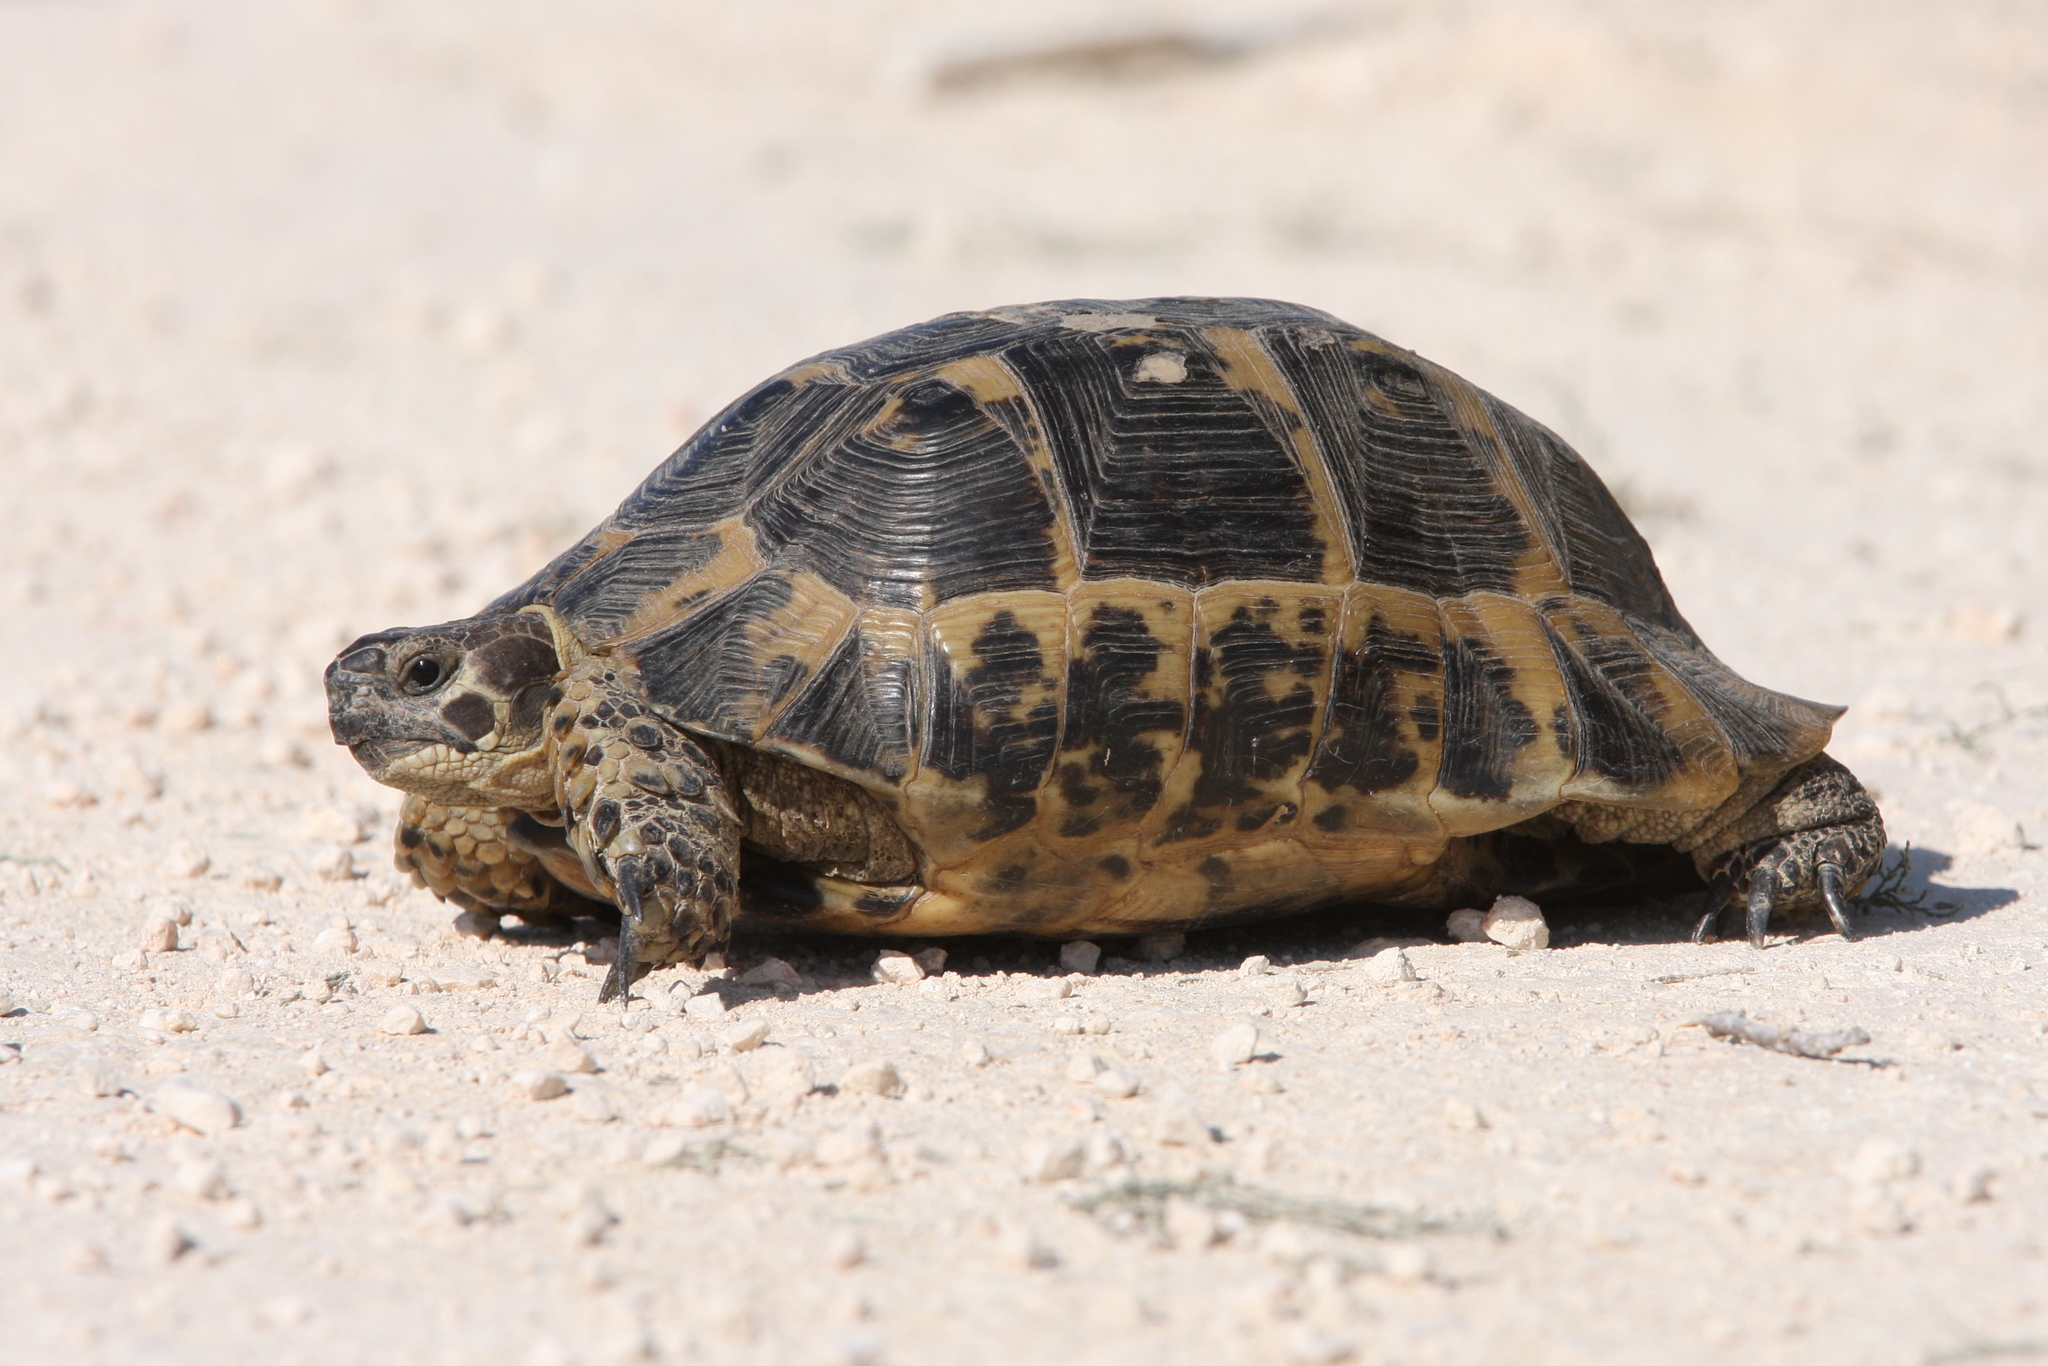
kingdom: Animalia
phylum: Chordata
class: Testudines
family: Testudinidae
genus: Testudo
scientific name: Testudo graeca
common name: Common tortoise
